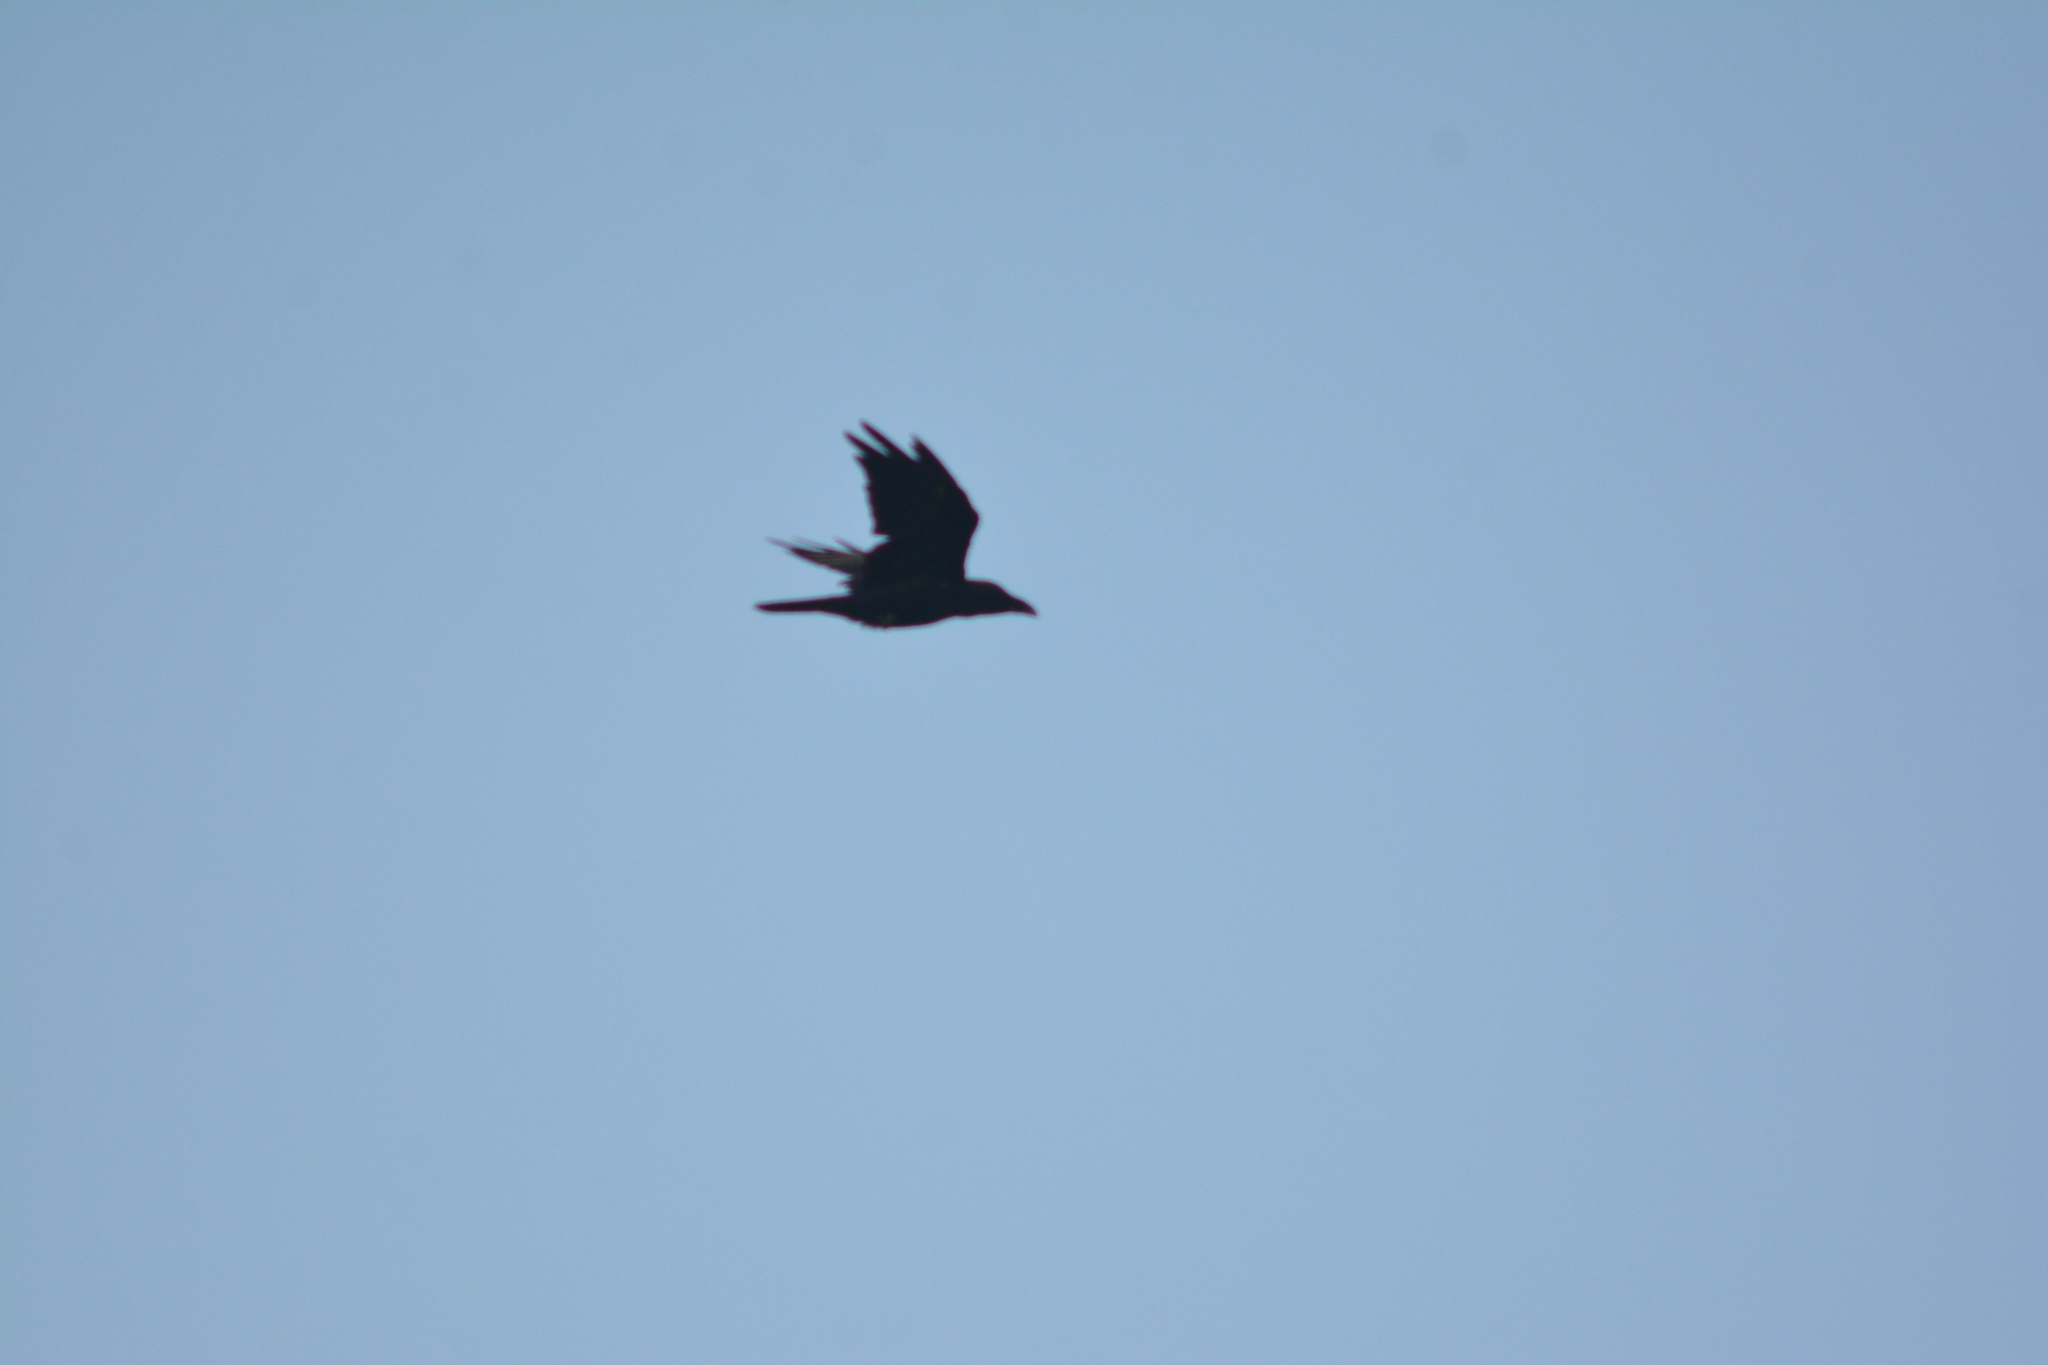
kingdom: Animalia
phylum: Chordata
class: Aves
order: Passeriformes
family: Corvidae
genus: Corvus
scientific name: Corvus corax
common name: Common raven
